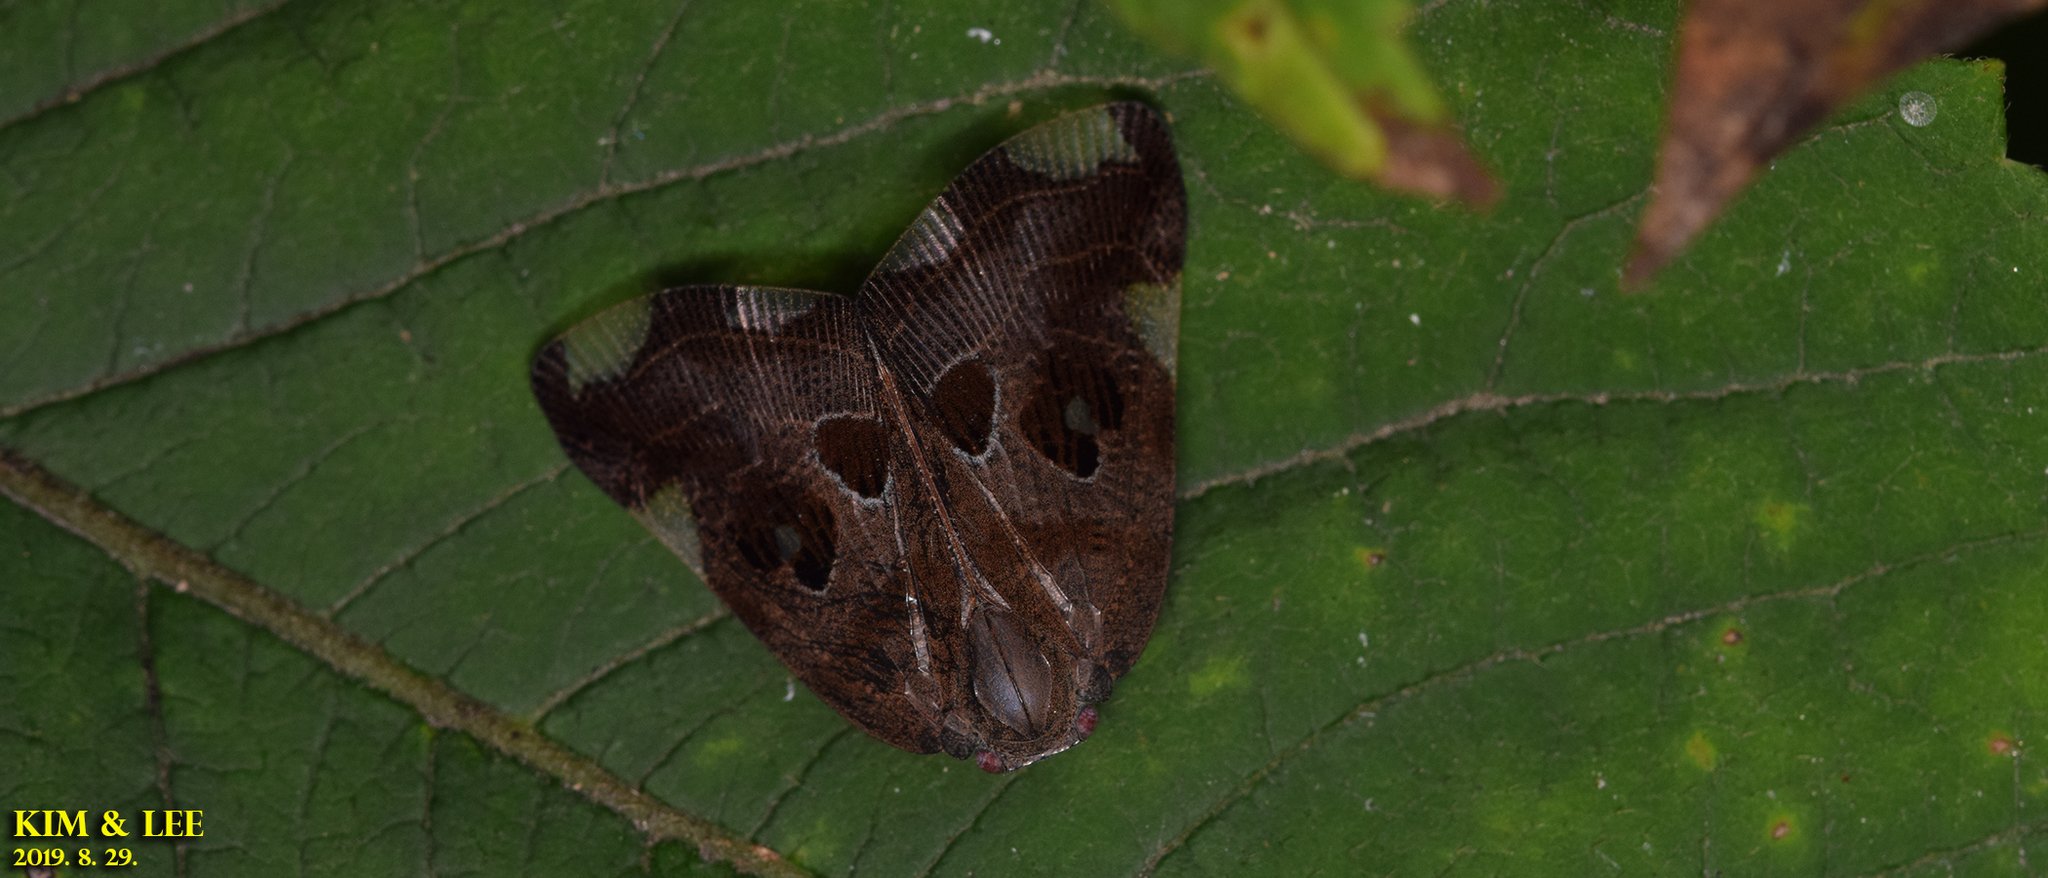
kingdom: Animalia
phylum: Arthropoda
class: Insecta
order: Hemiptera
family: Ricaniidae
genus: Ricania
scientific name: Ricania speculum
